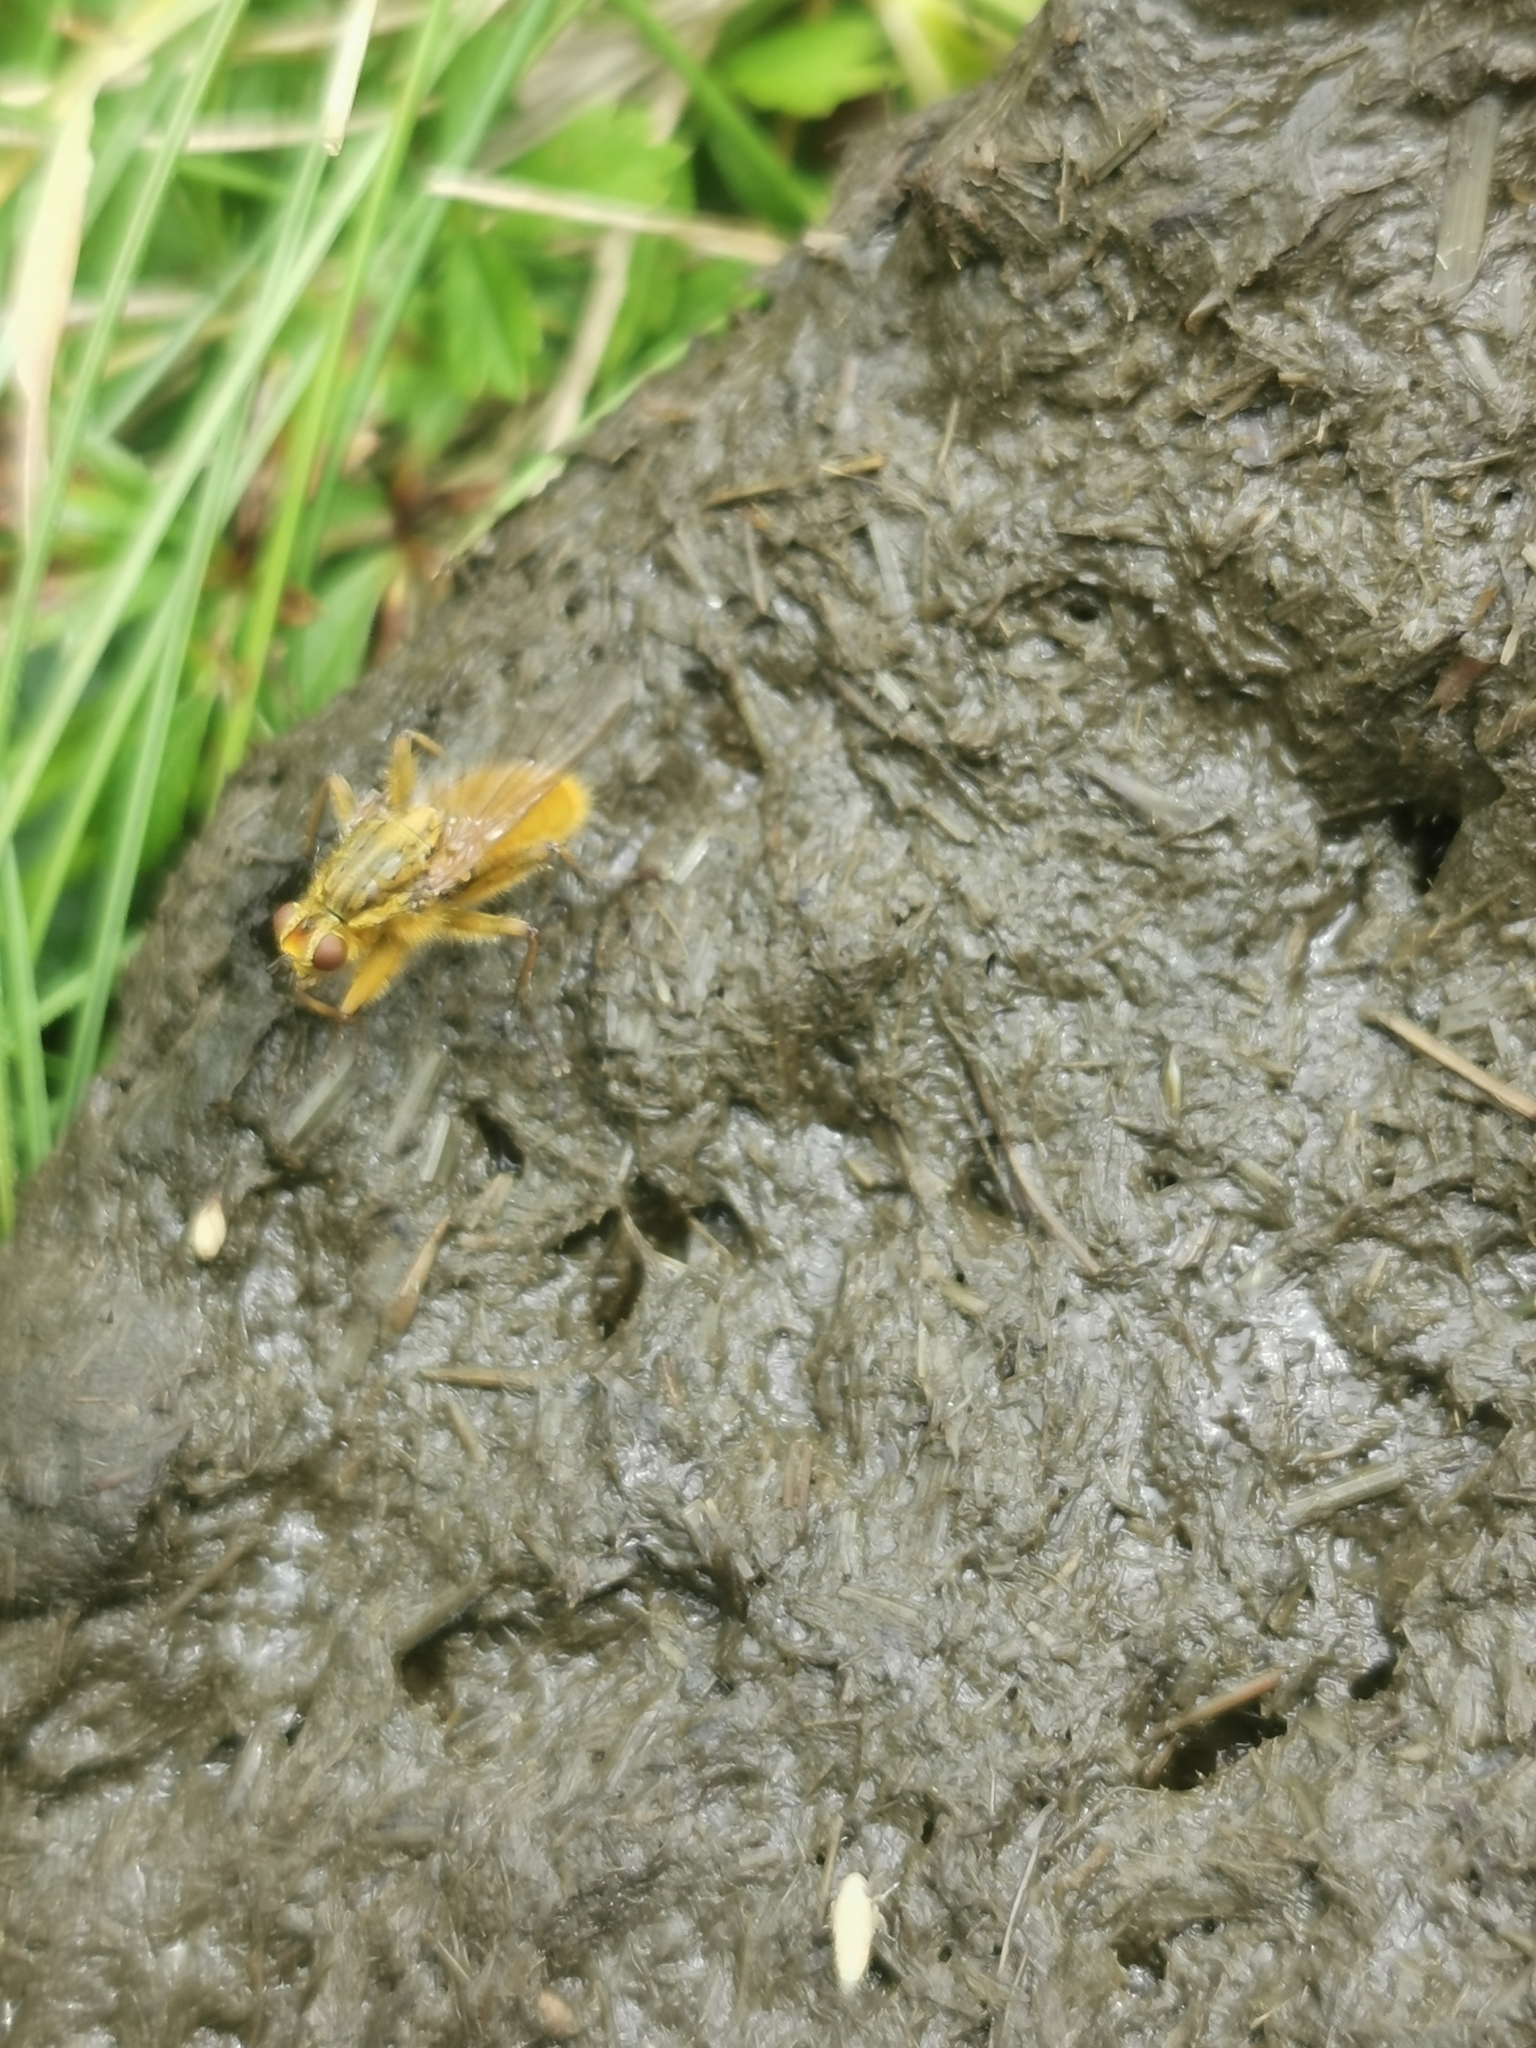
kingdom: Animalia
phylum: Arthropoda
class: Insecta
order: Diptera
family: Scathophagidae
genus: Scathophaga
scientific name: Scathophaga stercoraria
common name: Yellow dung fly
